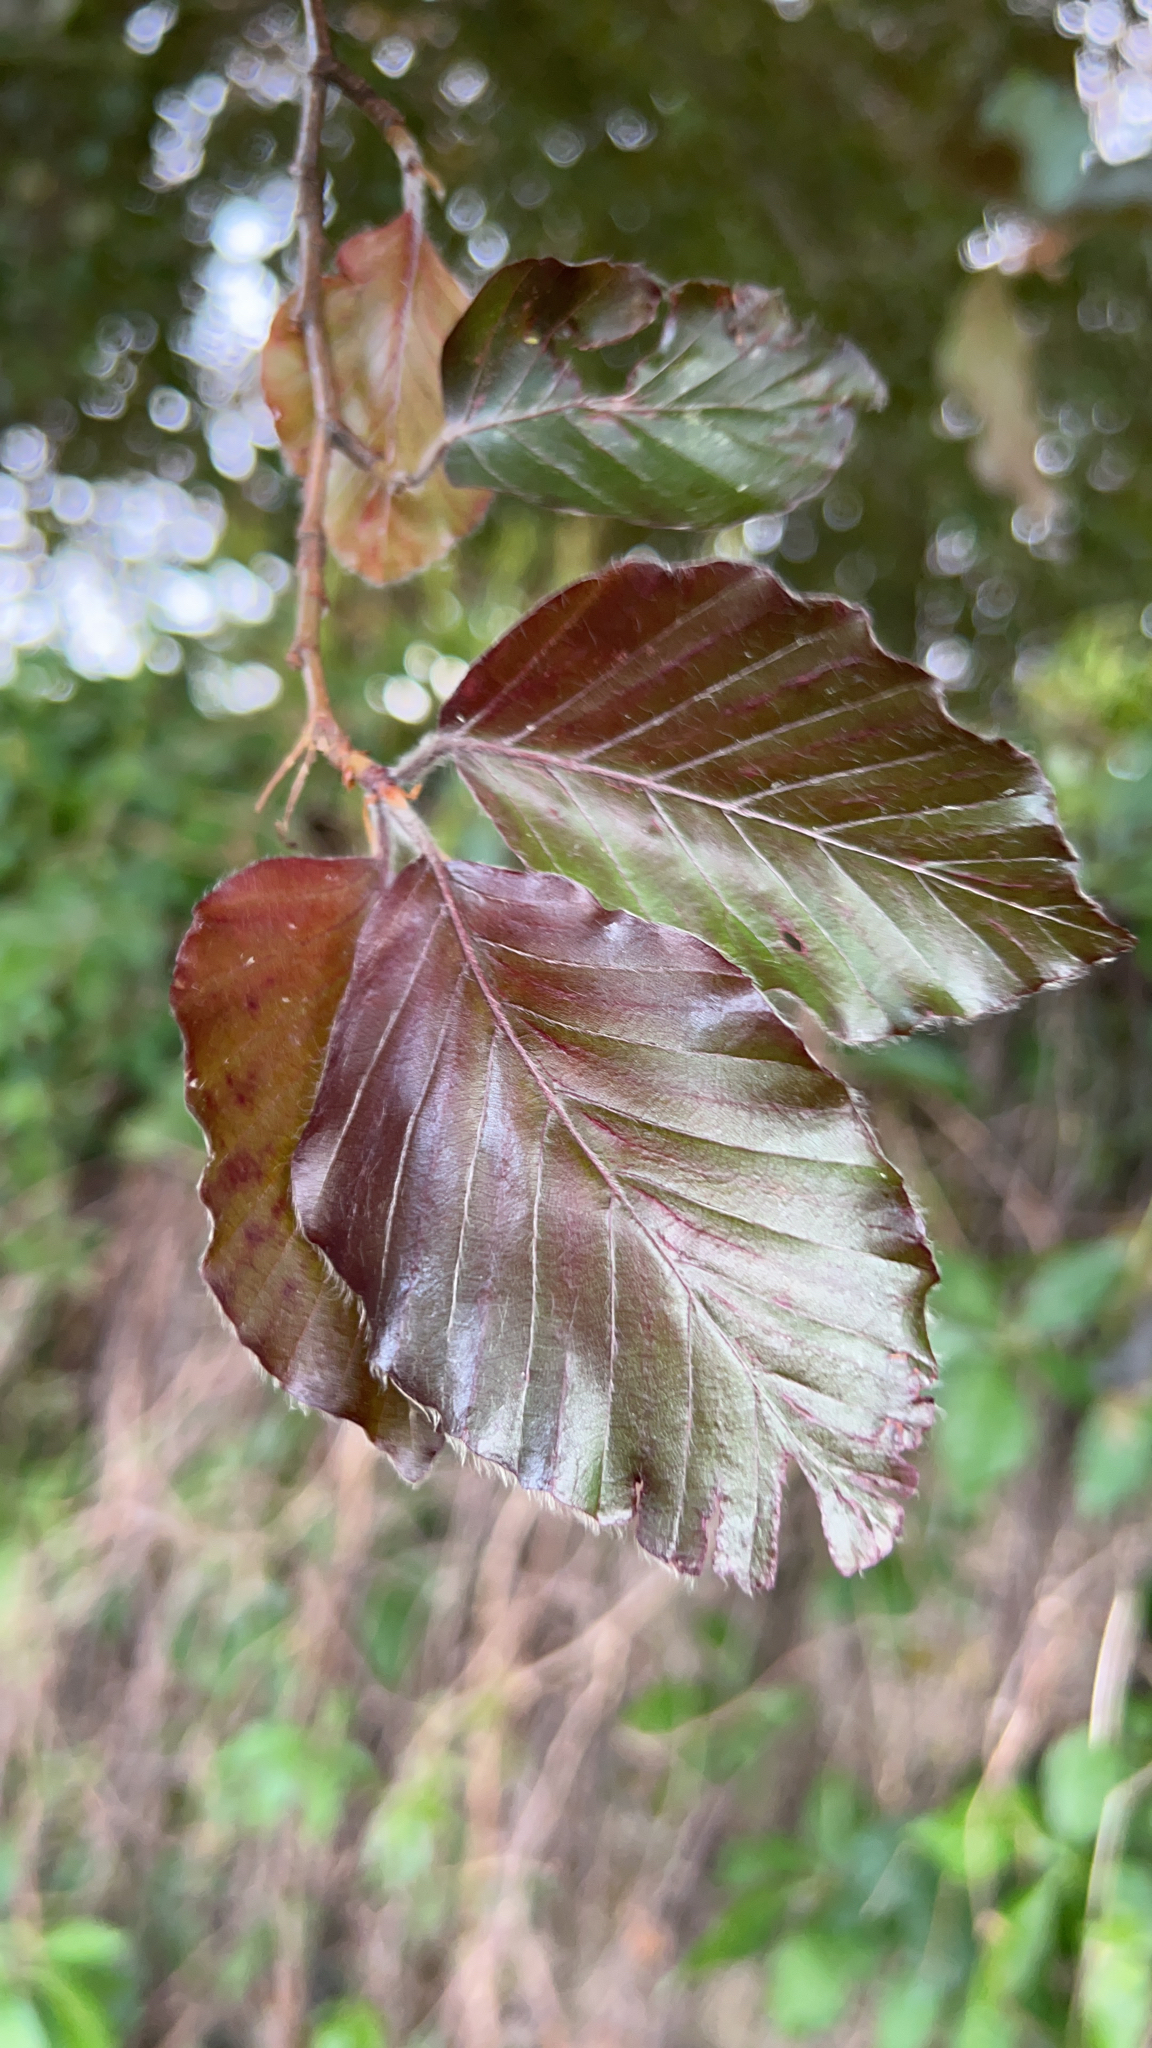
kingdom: Plantae
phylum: Tracheophyta
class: Magnoliopsida
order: Fagales
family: Fagaceae
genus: Fagus
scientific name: Fagus sylvatica
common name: Beech
